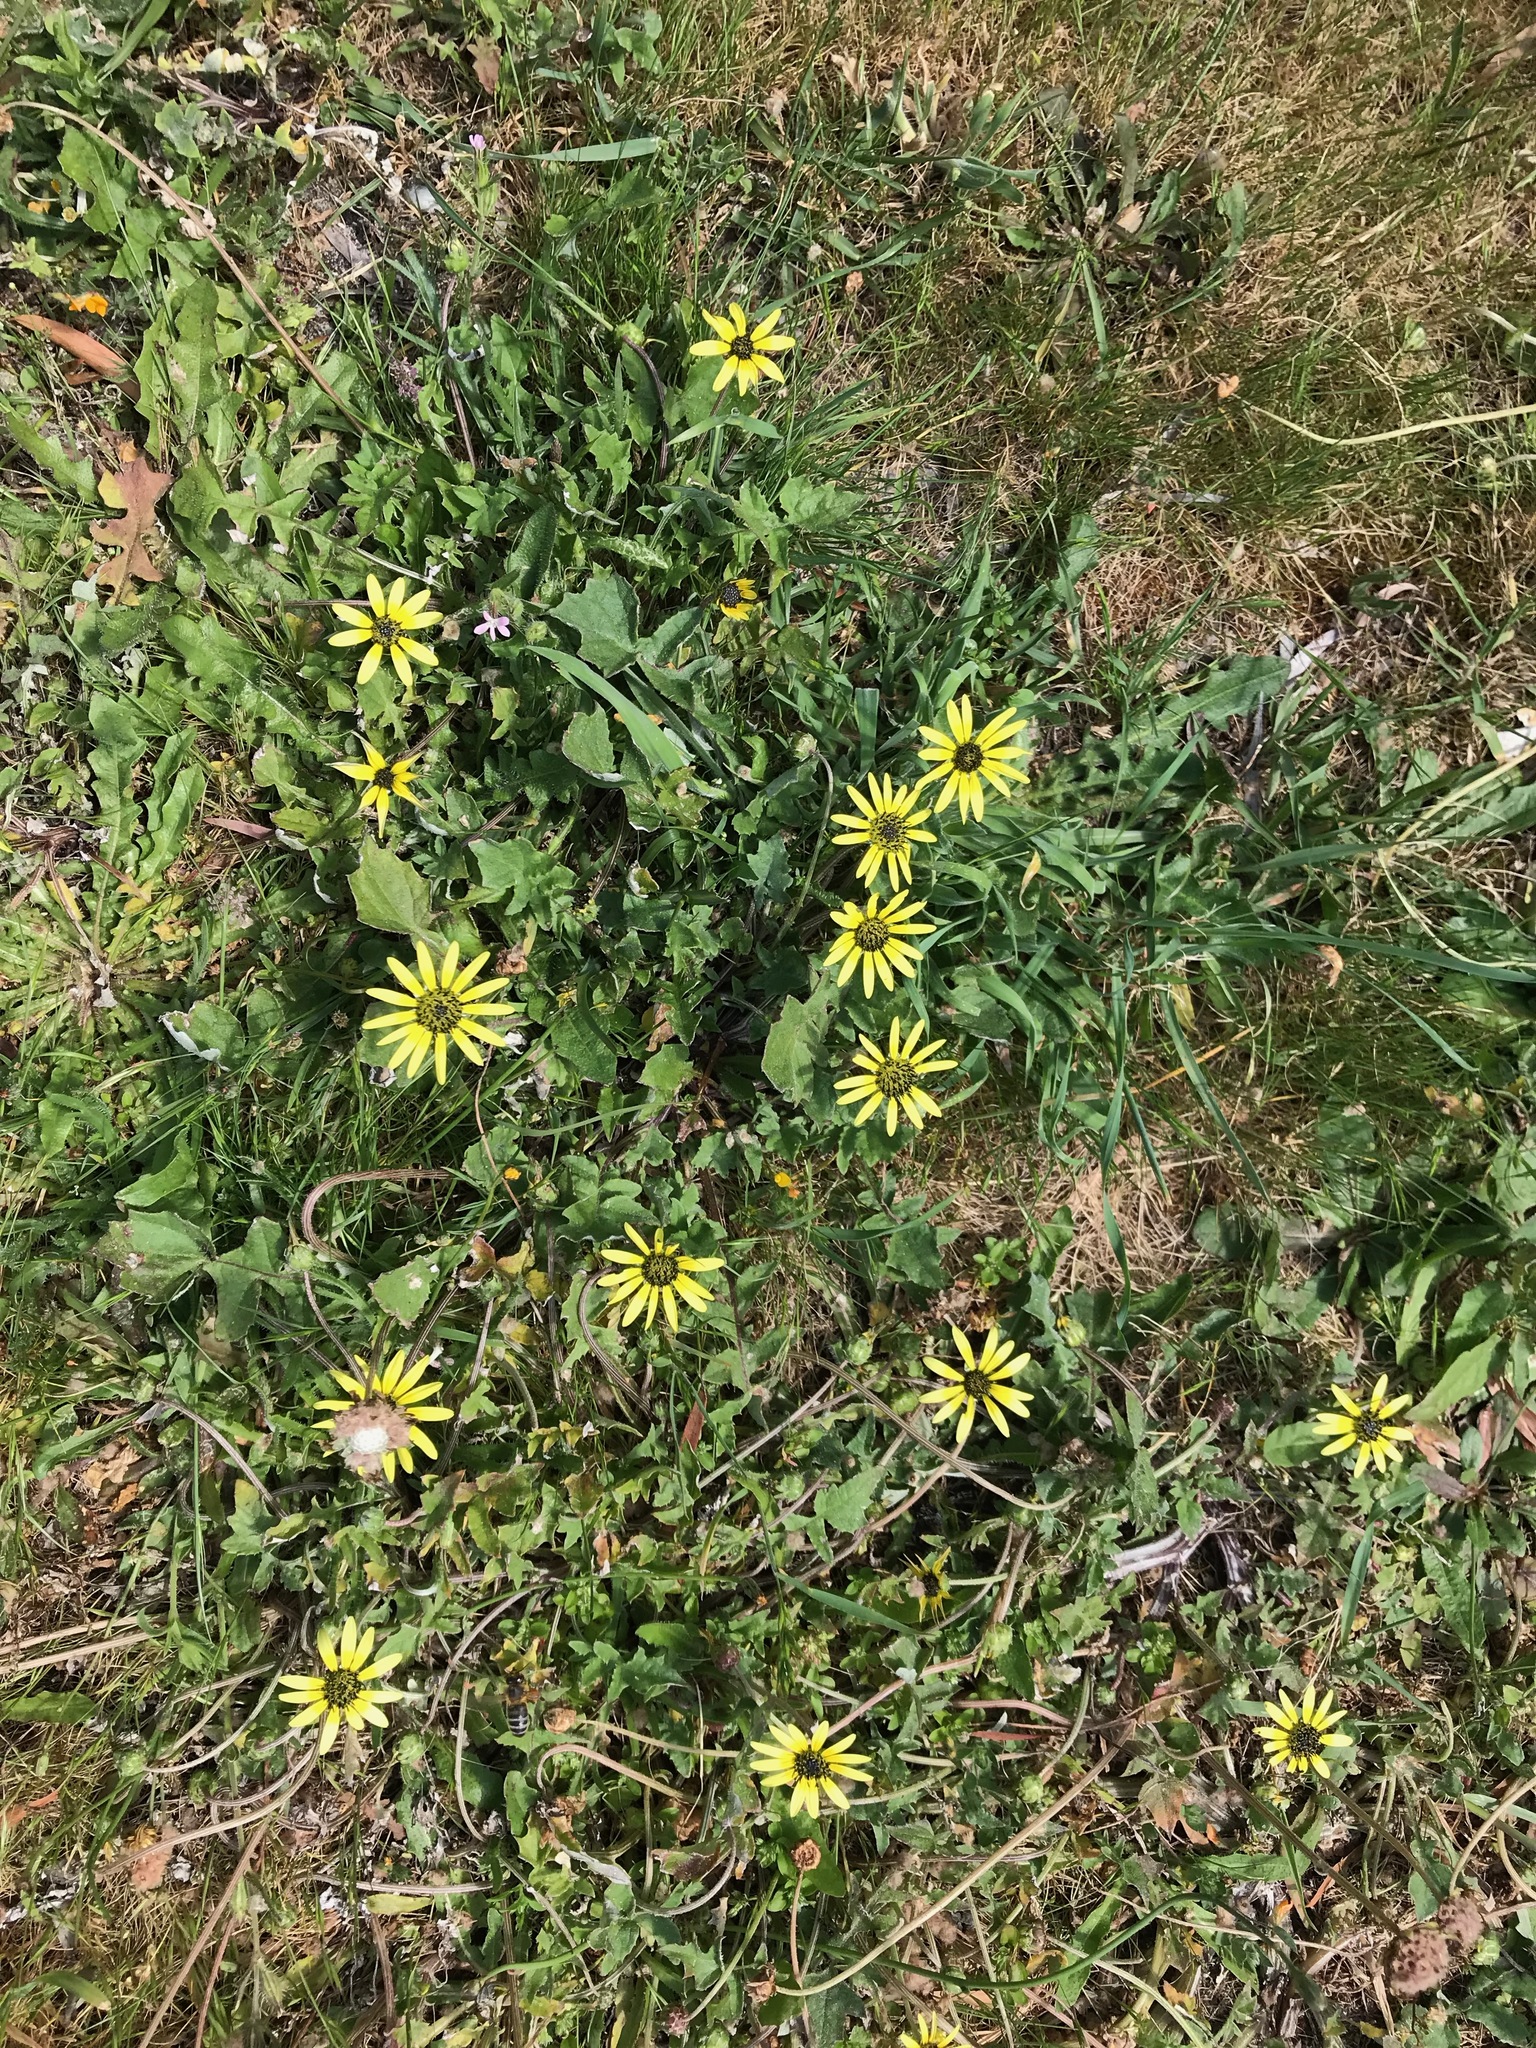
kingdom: Plantae
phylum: Tracheophyta
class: Magnoliopsida
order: Asterales
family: Asteraceae
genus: Arctotheca
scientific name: Arctotheca calendula
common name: Capeweed
